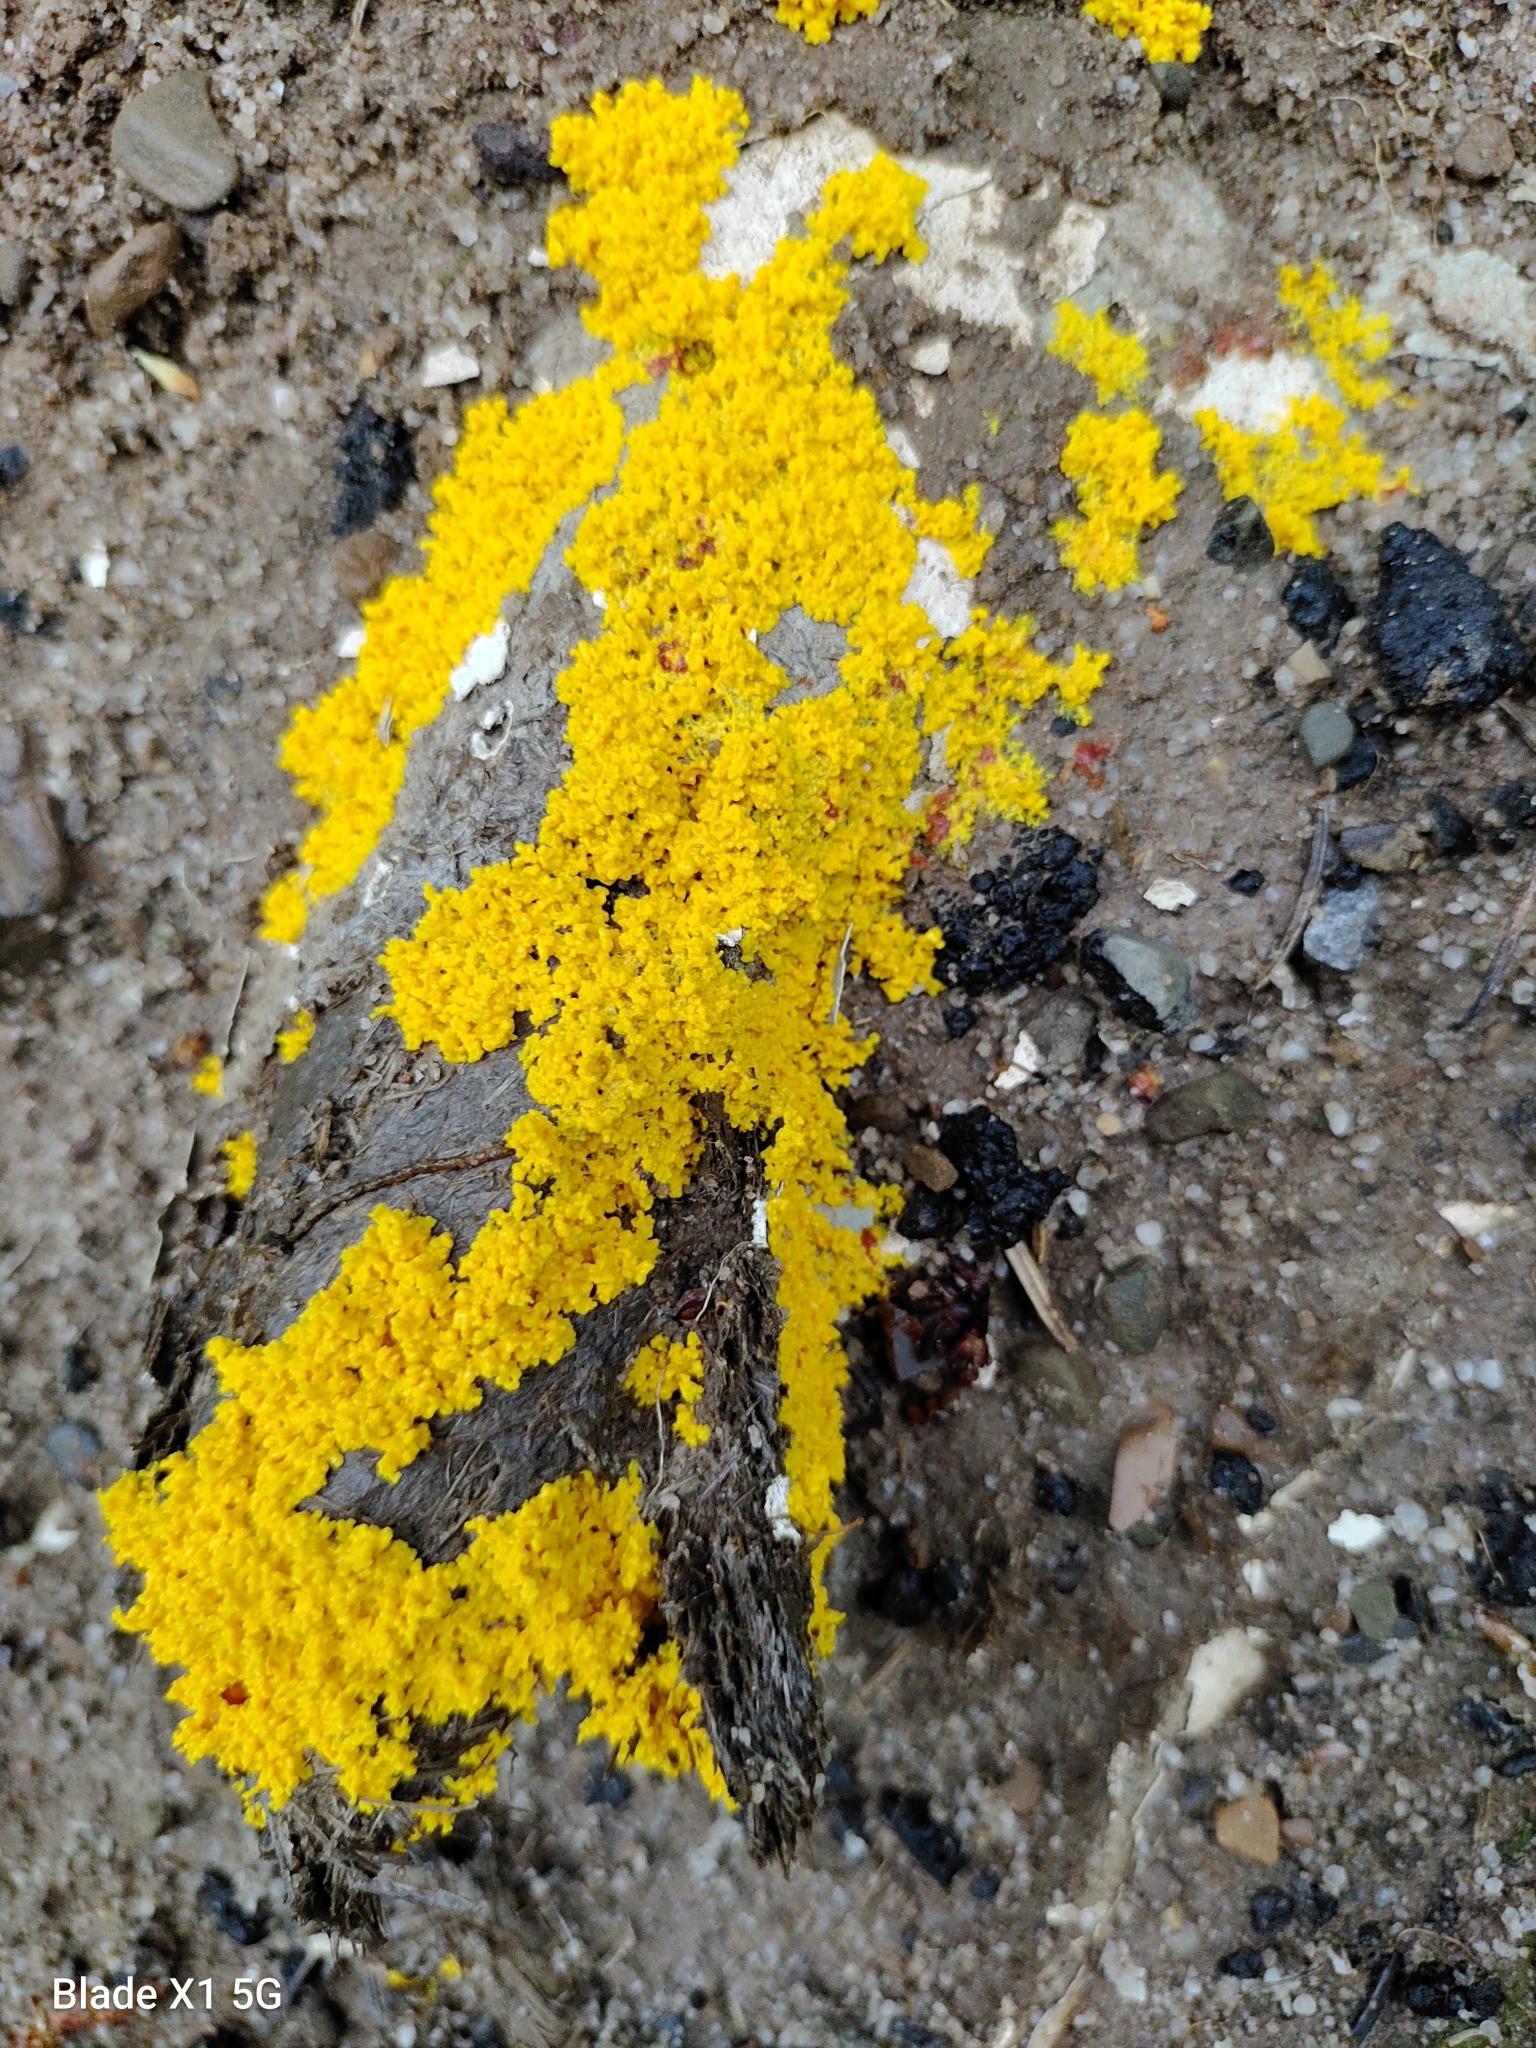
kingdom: Protozoa
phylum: Mycetozoa
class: Myxomycetes
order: Physarales
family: Physaraceae
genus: Fuligo
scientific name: Fuligo septica
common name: Dog vomit slime mold
